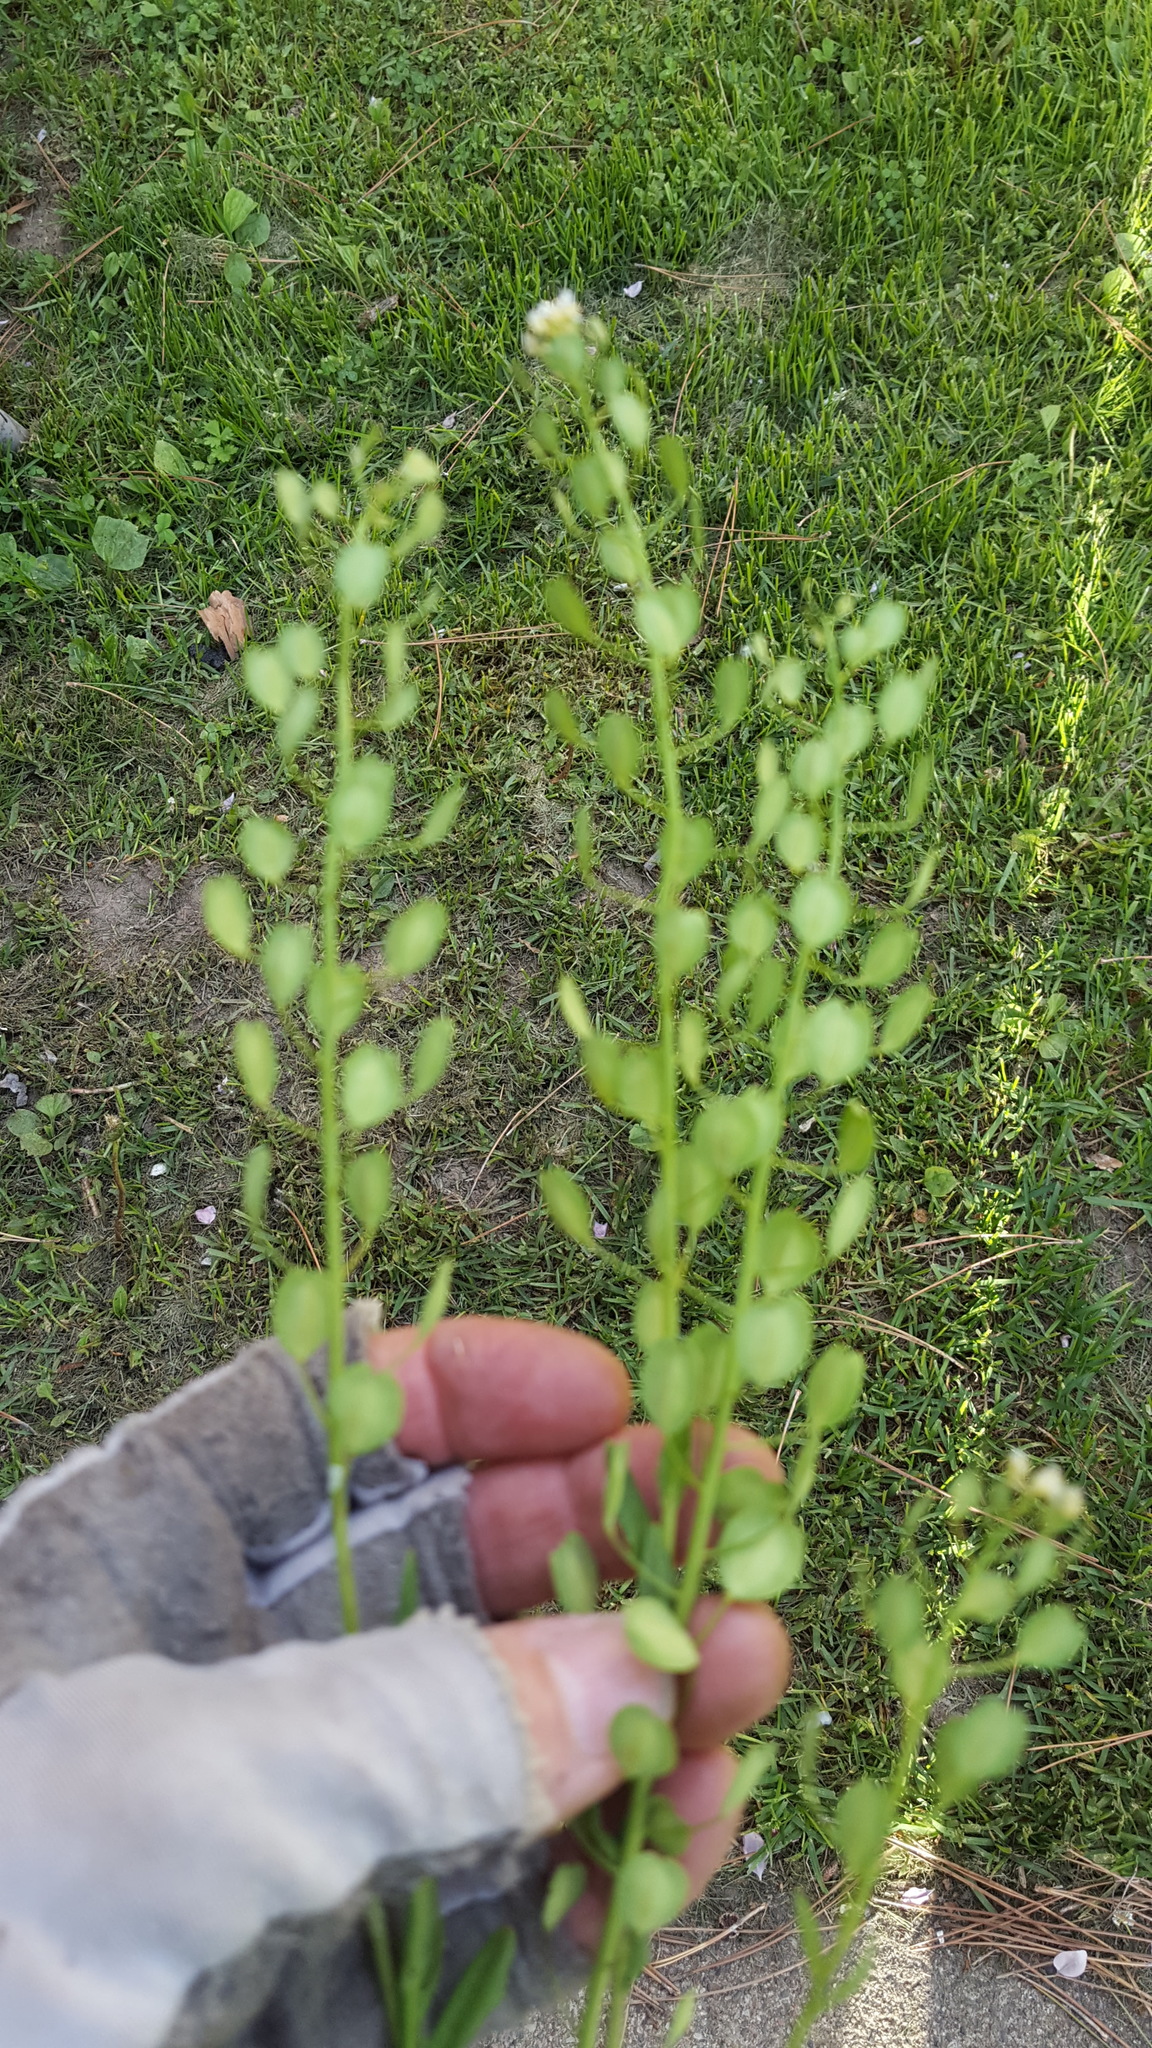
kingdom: Plantae
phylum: Tracheophyta
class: Magnoliopsida
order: Brassicales
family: Brassicaceae
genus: Thlaspi
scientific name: Thlaspi arvense
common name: Field pennycress
